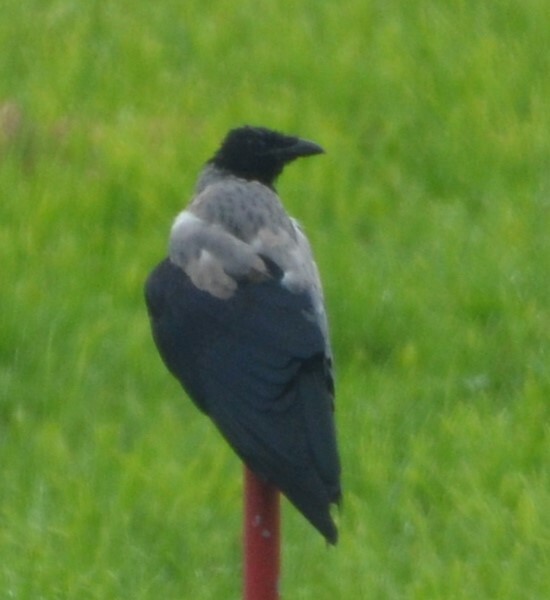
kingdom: Animalia
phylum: Chordata
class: Aves
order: Passeriformes
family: Corvidae
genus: Corvus
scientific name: Corvus cornix
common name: Hooded crow
